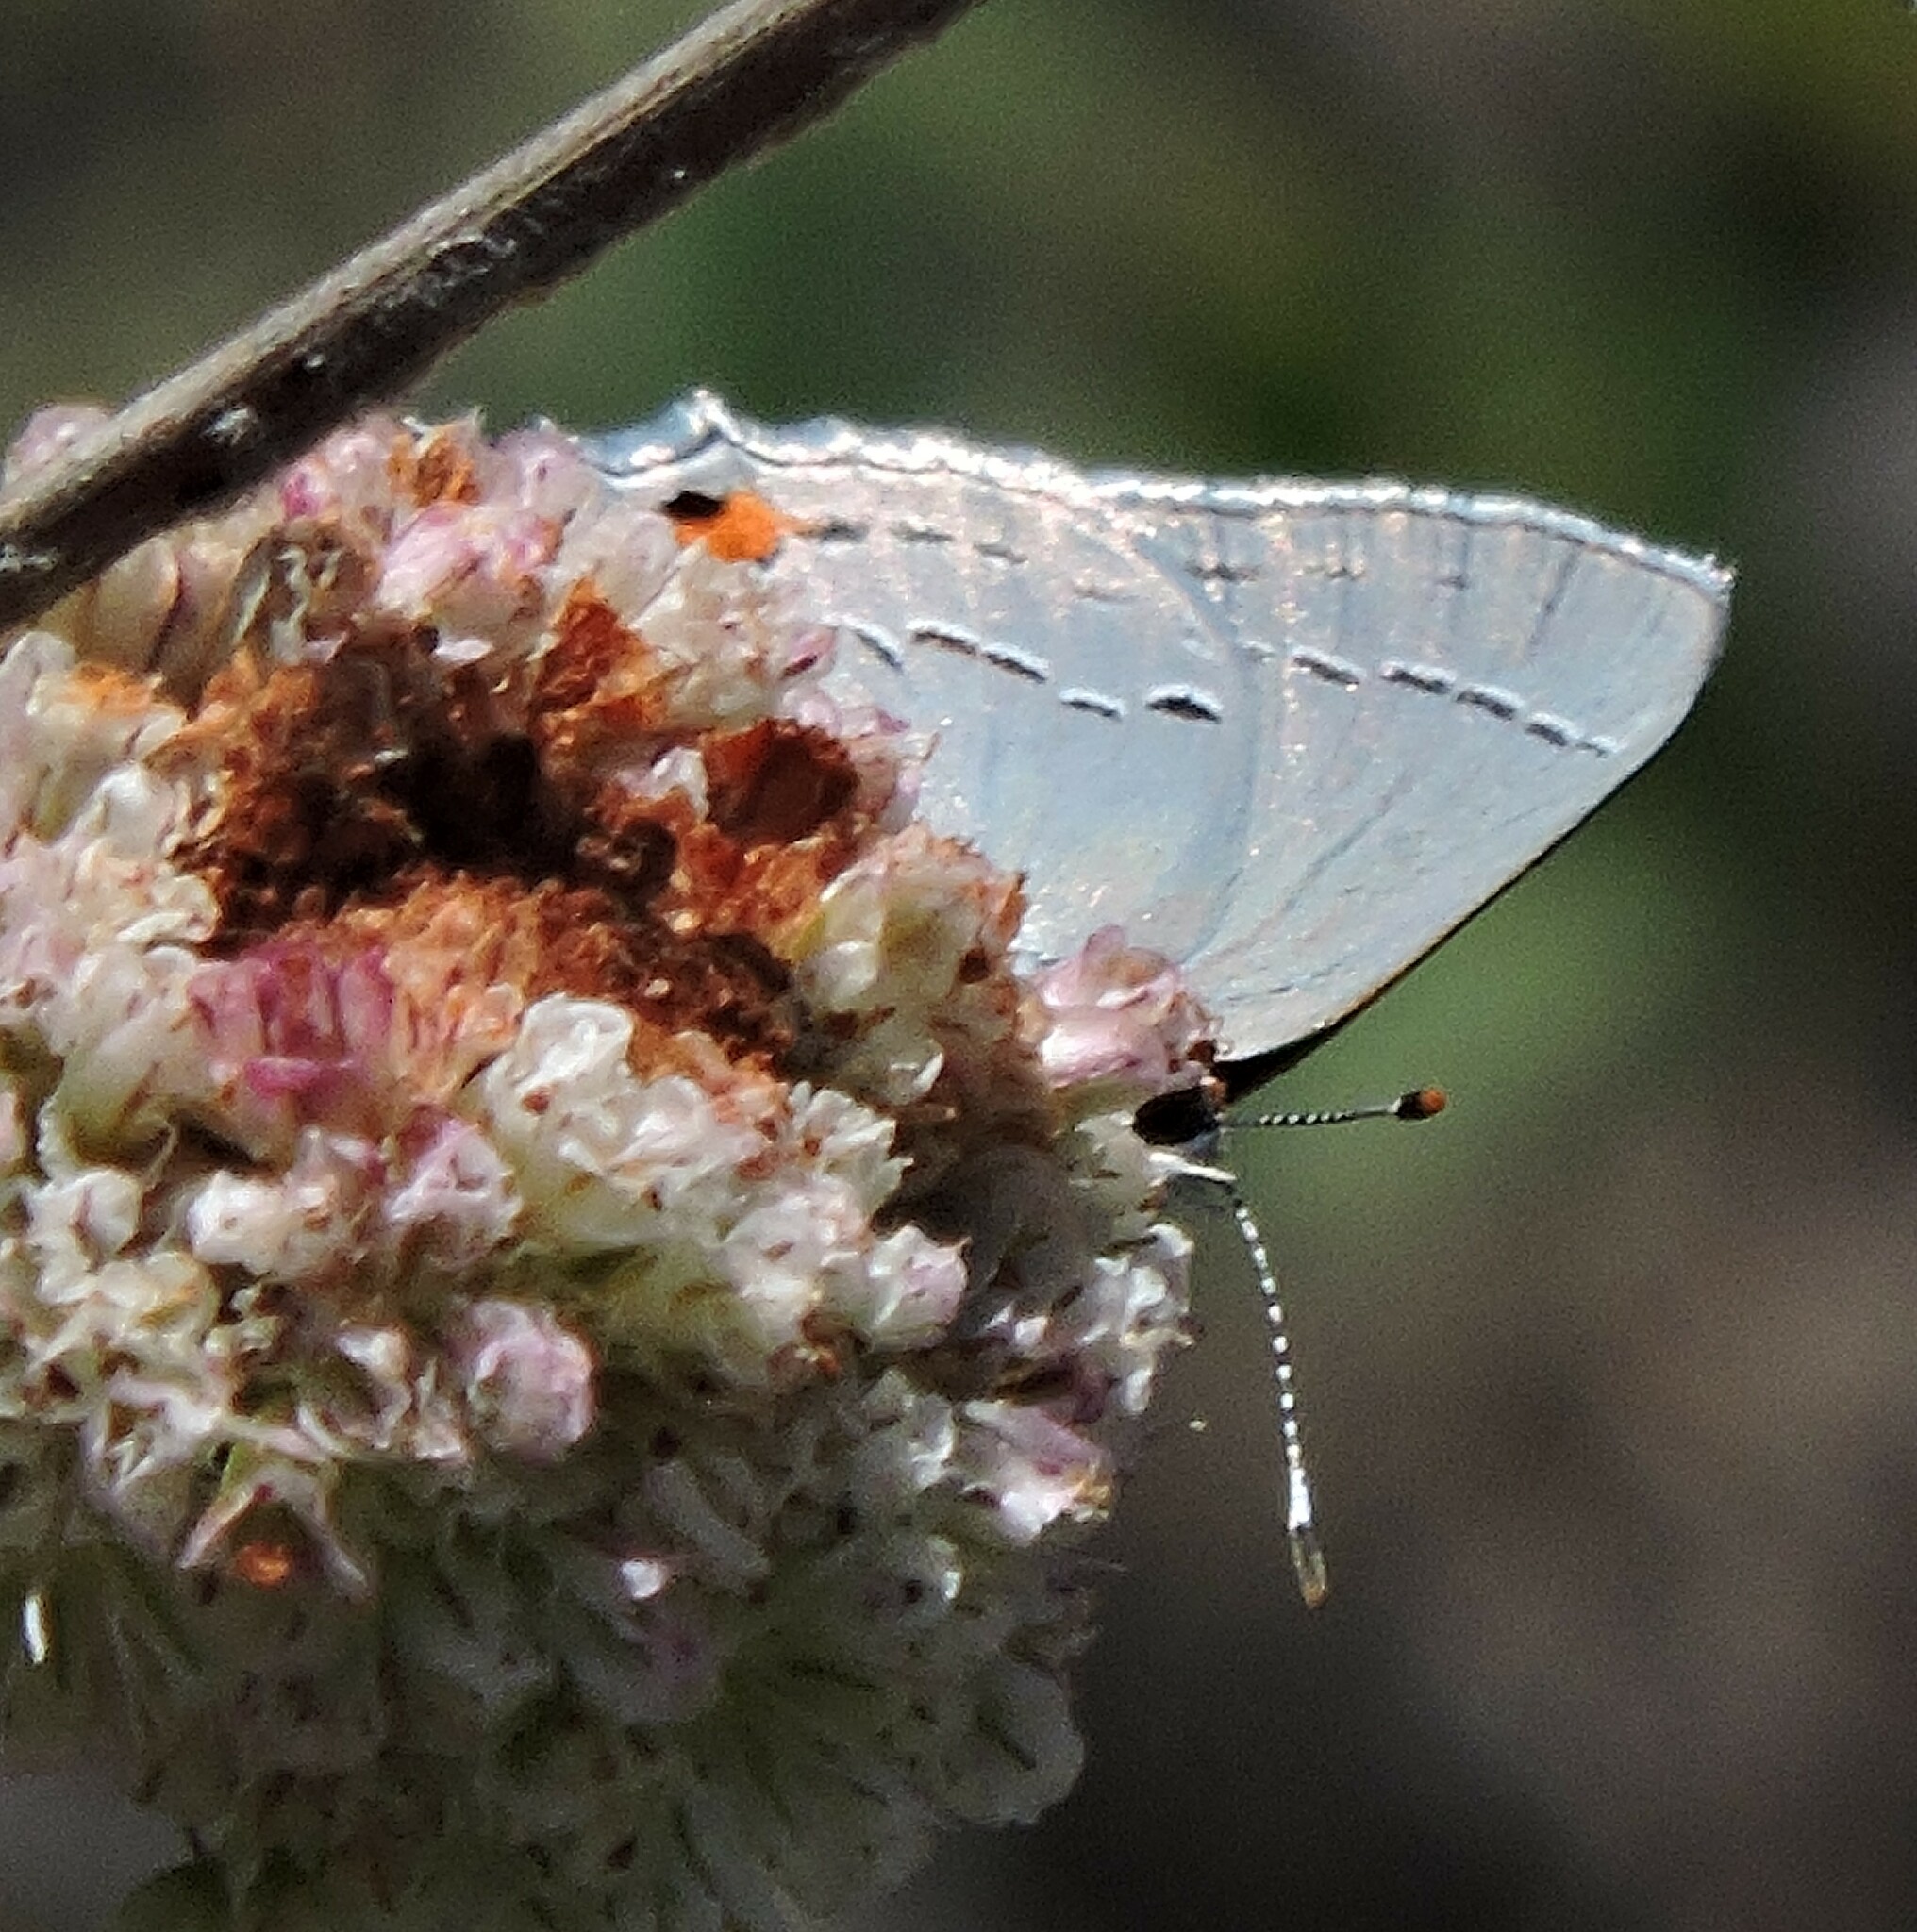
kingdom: Animalia
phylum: Arthropoda
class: Insecta
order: Lepidoptera
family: Lycaenidae
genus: Strymon
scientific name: Strymon melinus
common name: Gray hairstreak
